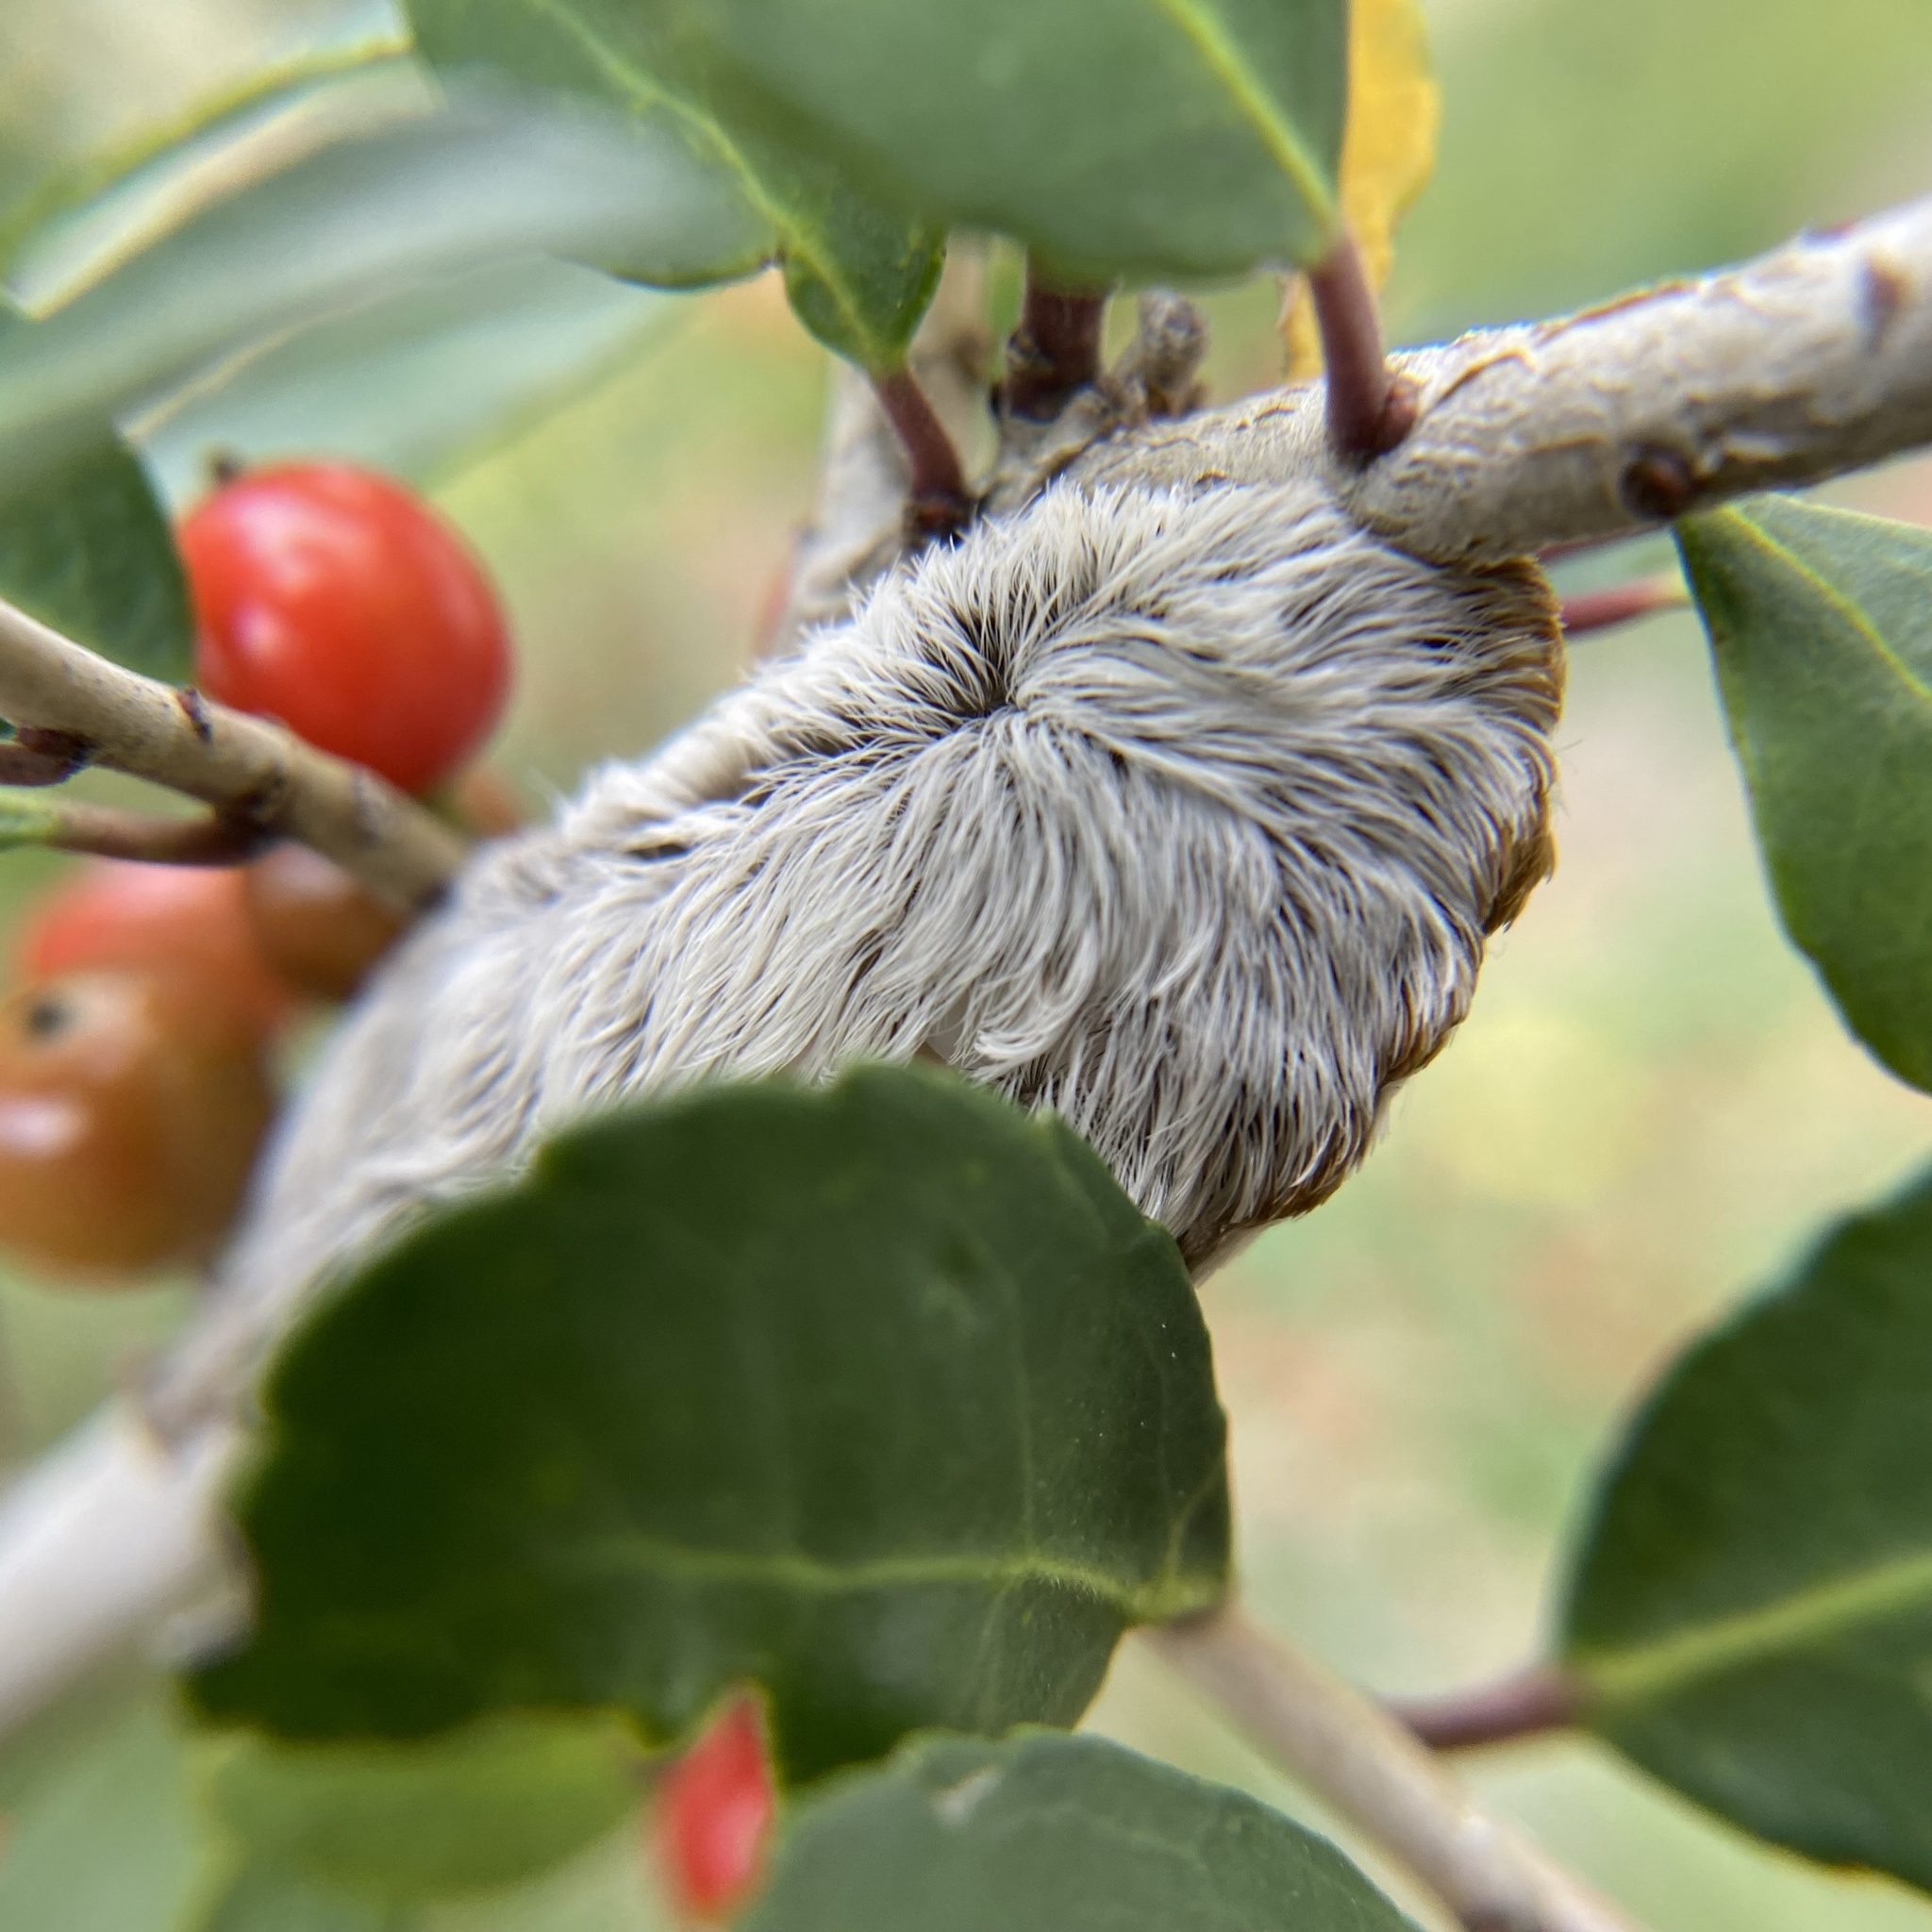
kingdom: Animalia
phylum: Arthropoda
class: Insecta
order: Lepidoptera
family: Megalopygidae
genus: Megalopyge
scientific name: Megalopyge opercularis
